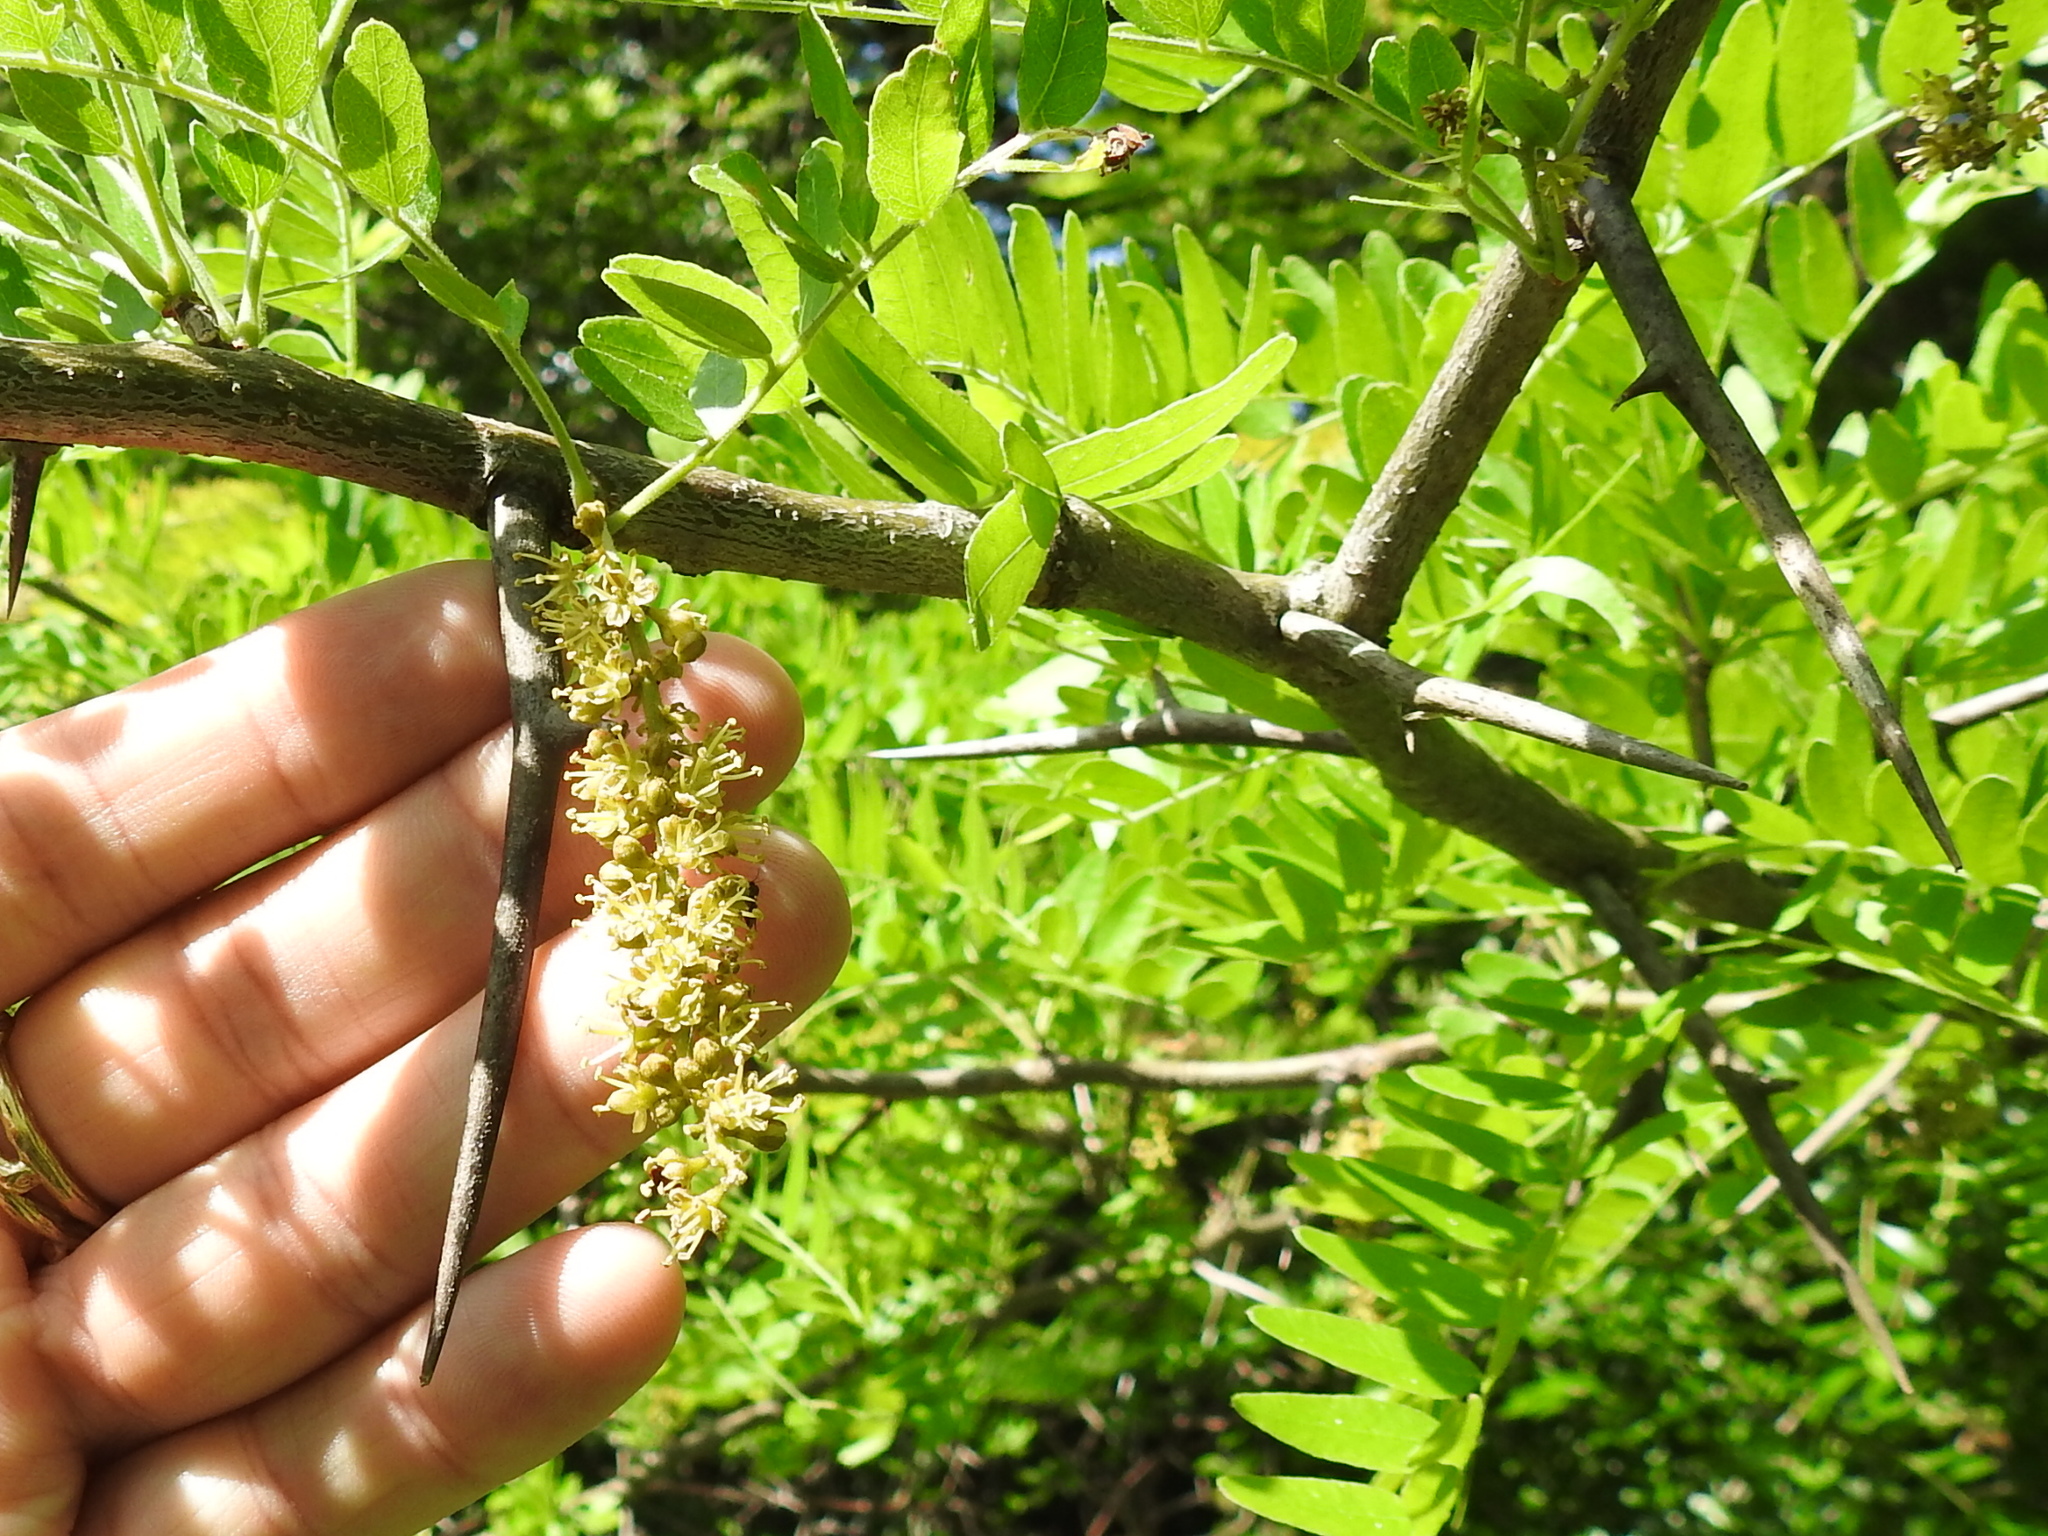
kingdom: Plantae
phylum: Tracheophyta
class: Magnoliopsida
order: Fabales
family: Fabaceae
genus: Gleditsia
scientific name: Gleditsia triacanthos
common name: Common honeylocust
